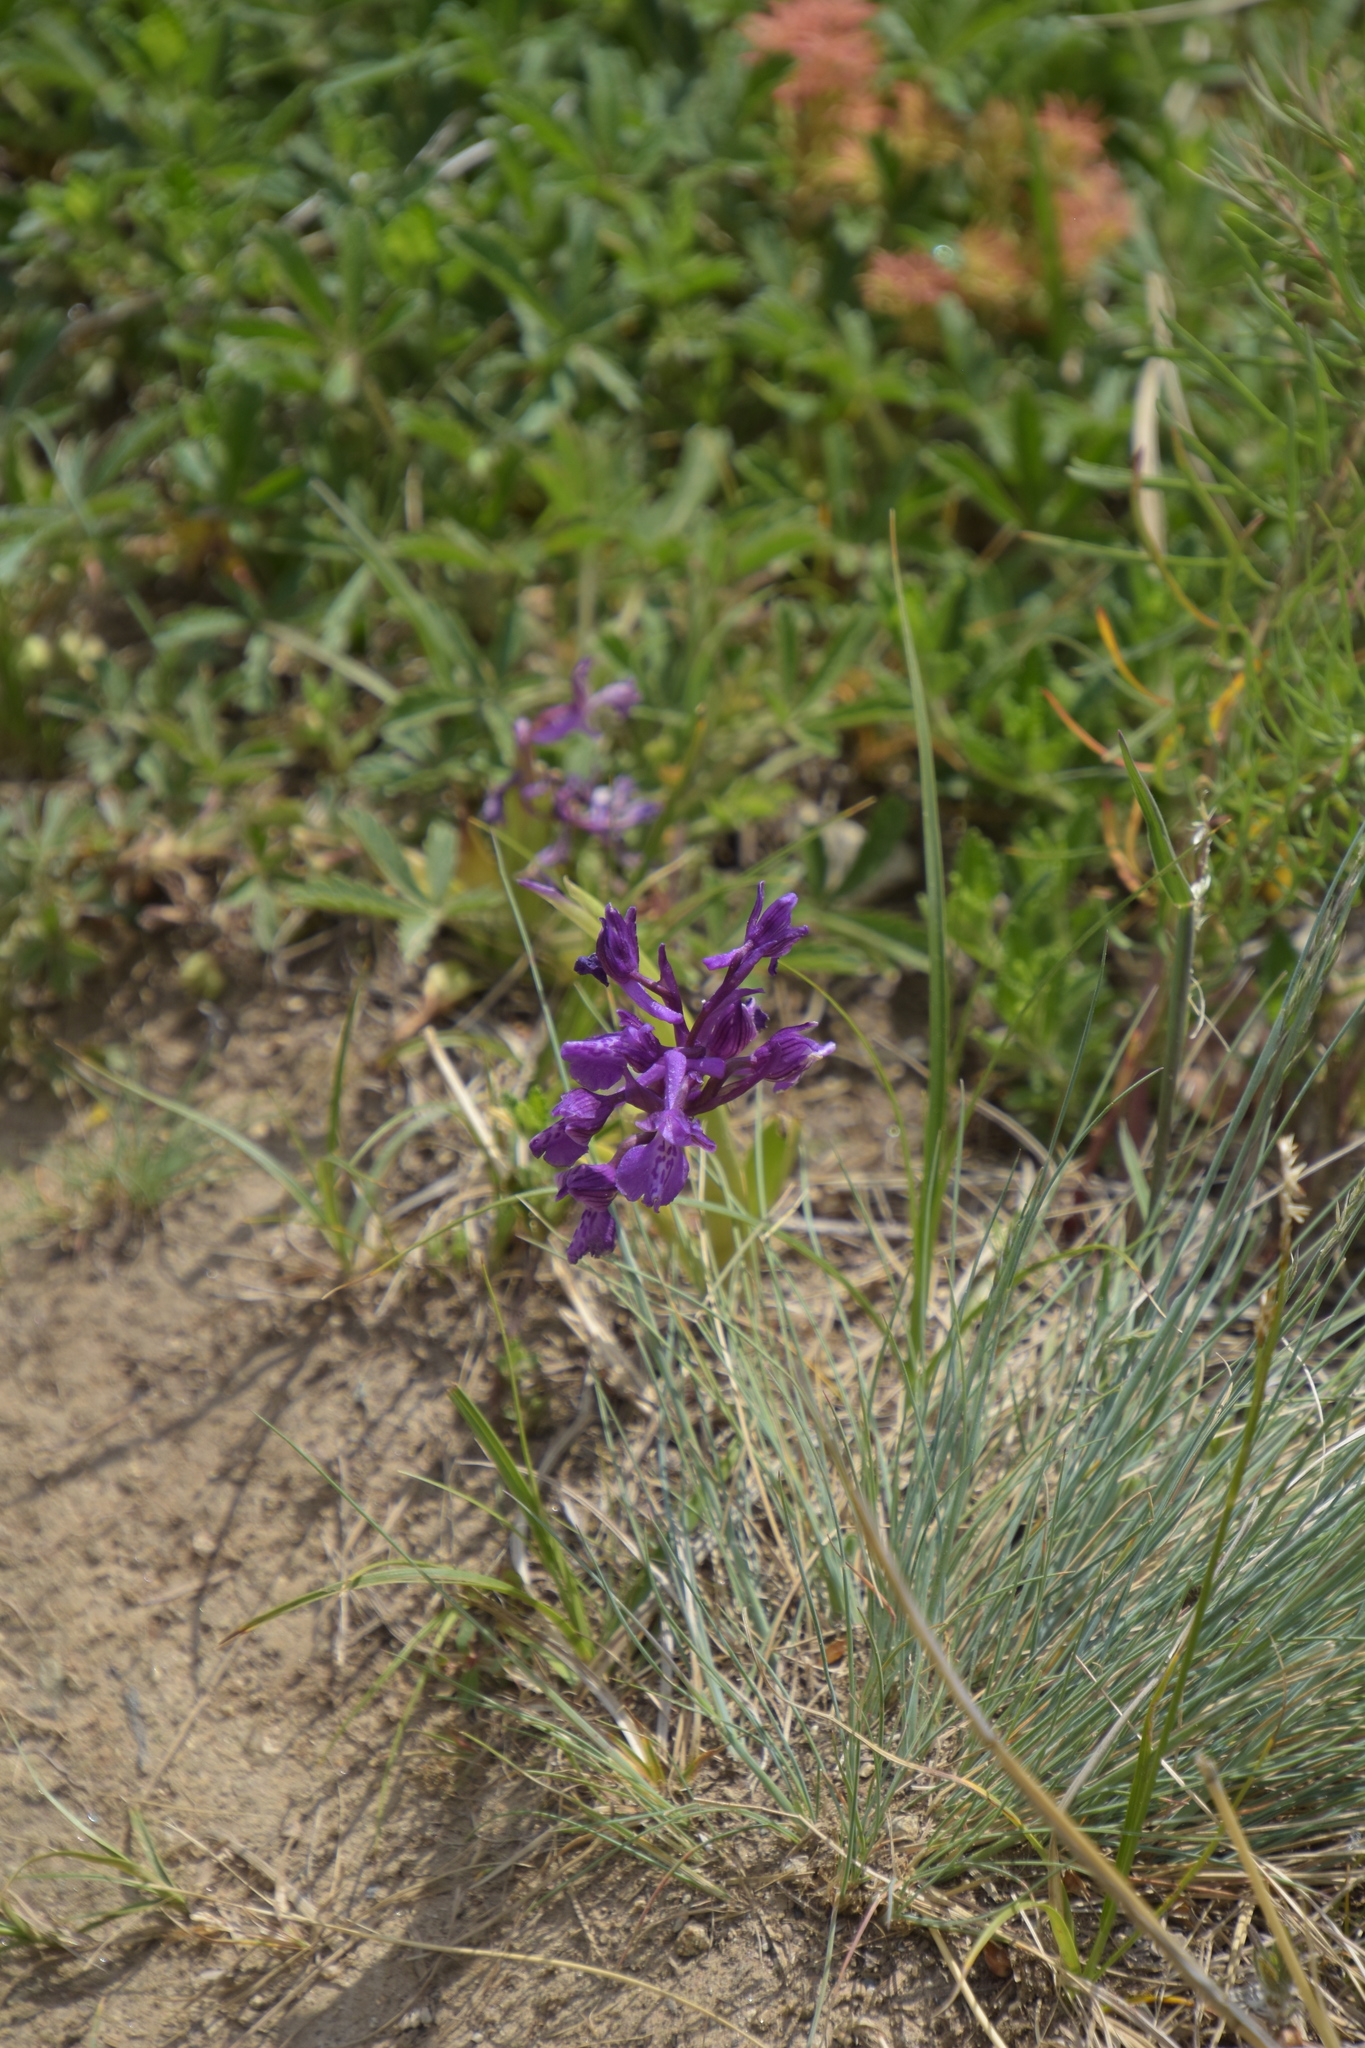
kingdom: Plantae
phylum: Tracheophyta
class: Liliopsida
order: Asparagales
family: Orchidaceae
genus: Anacamptis
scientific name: Anacamptis morio
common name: Green-winged orchid
